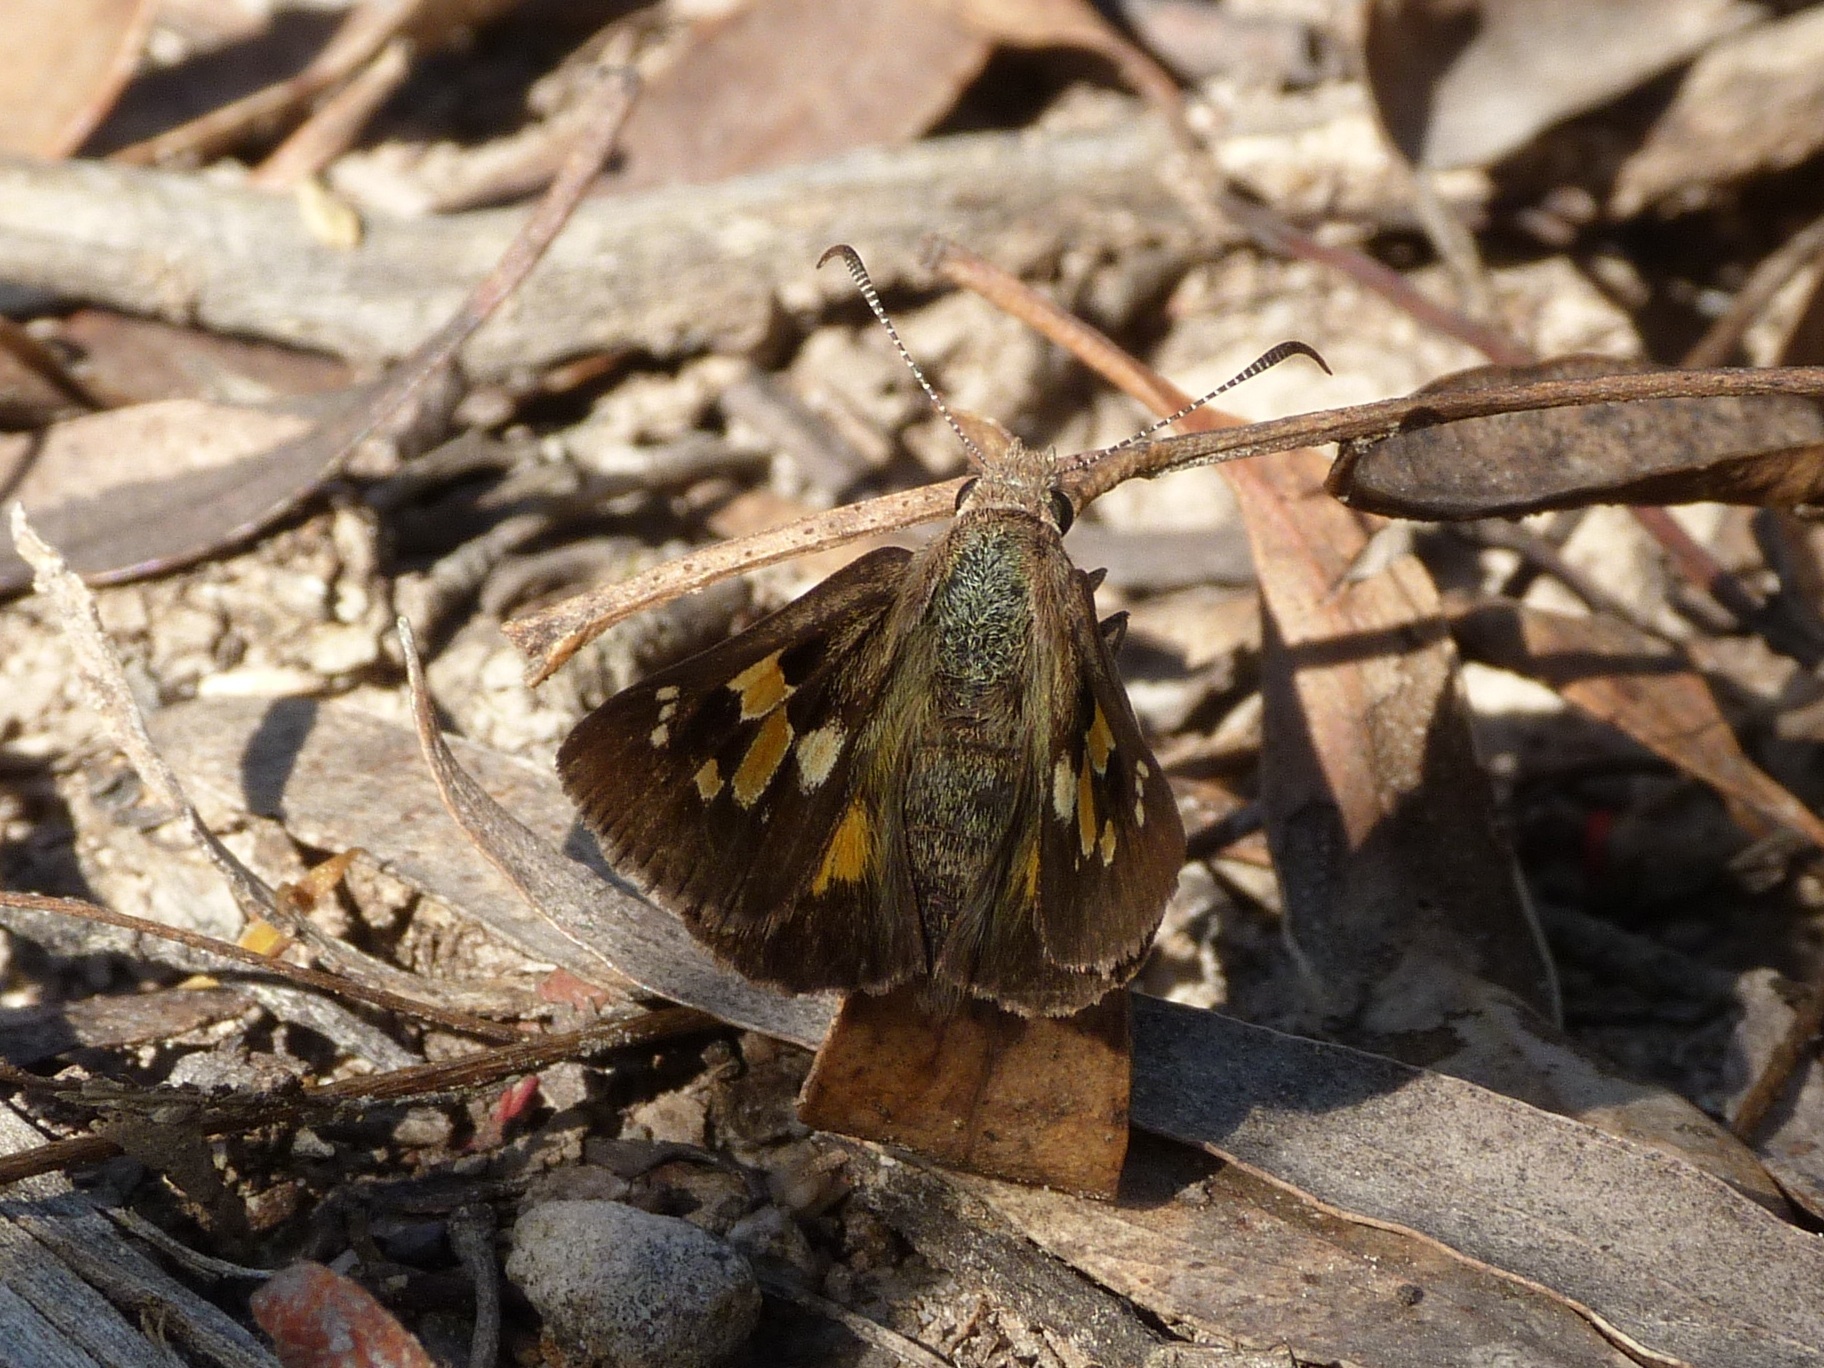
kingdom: Animalia
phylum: Arthropoda
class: Insecta
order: Lepidoptera
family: Hesperiidae
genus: Trapezites
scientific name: Trapezites phigalia
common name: Heath ochre
